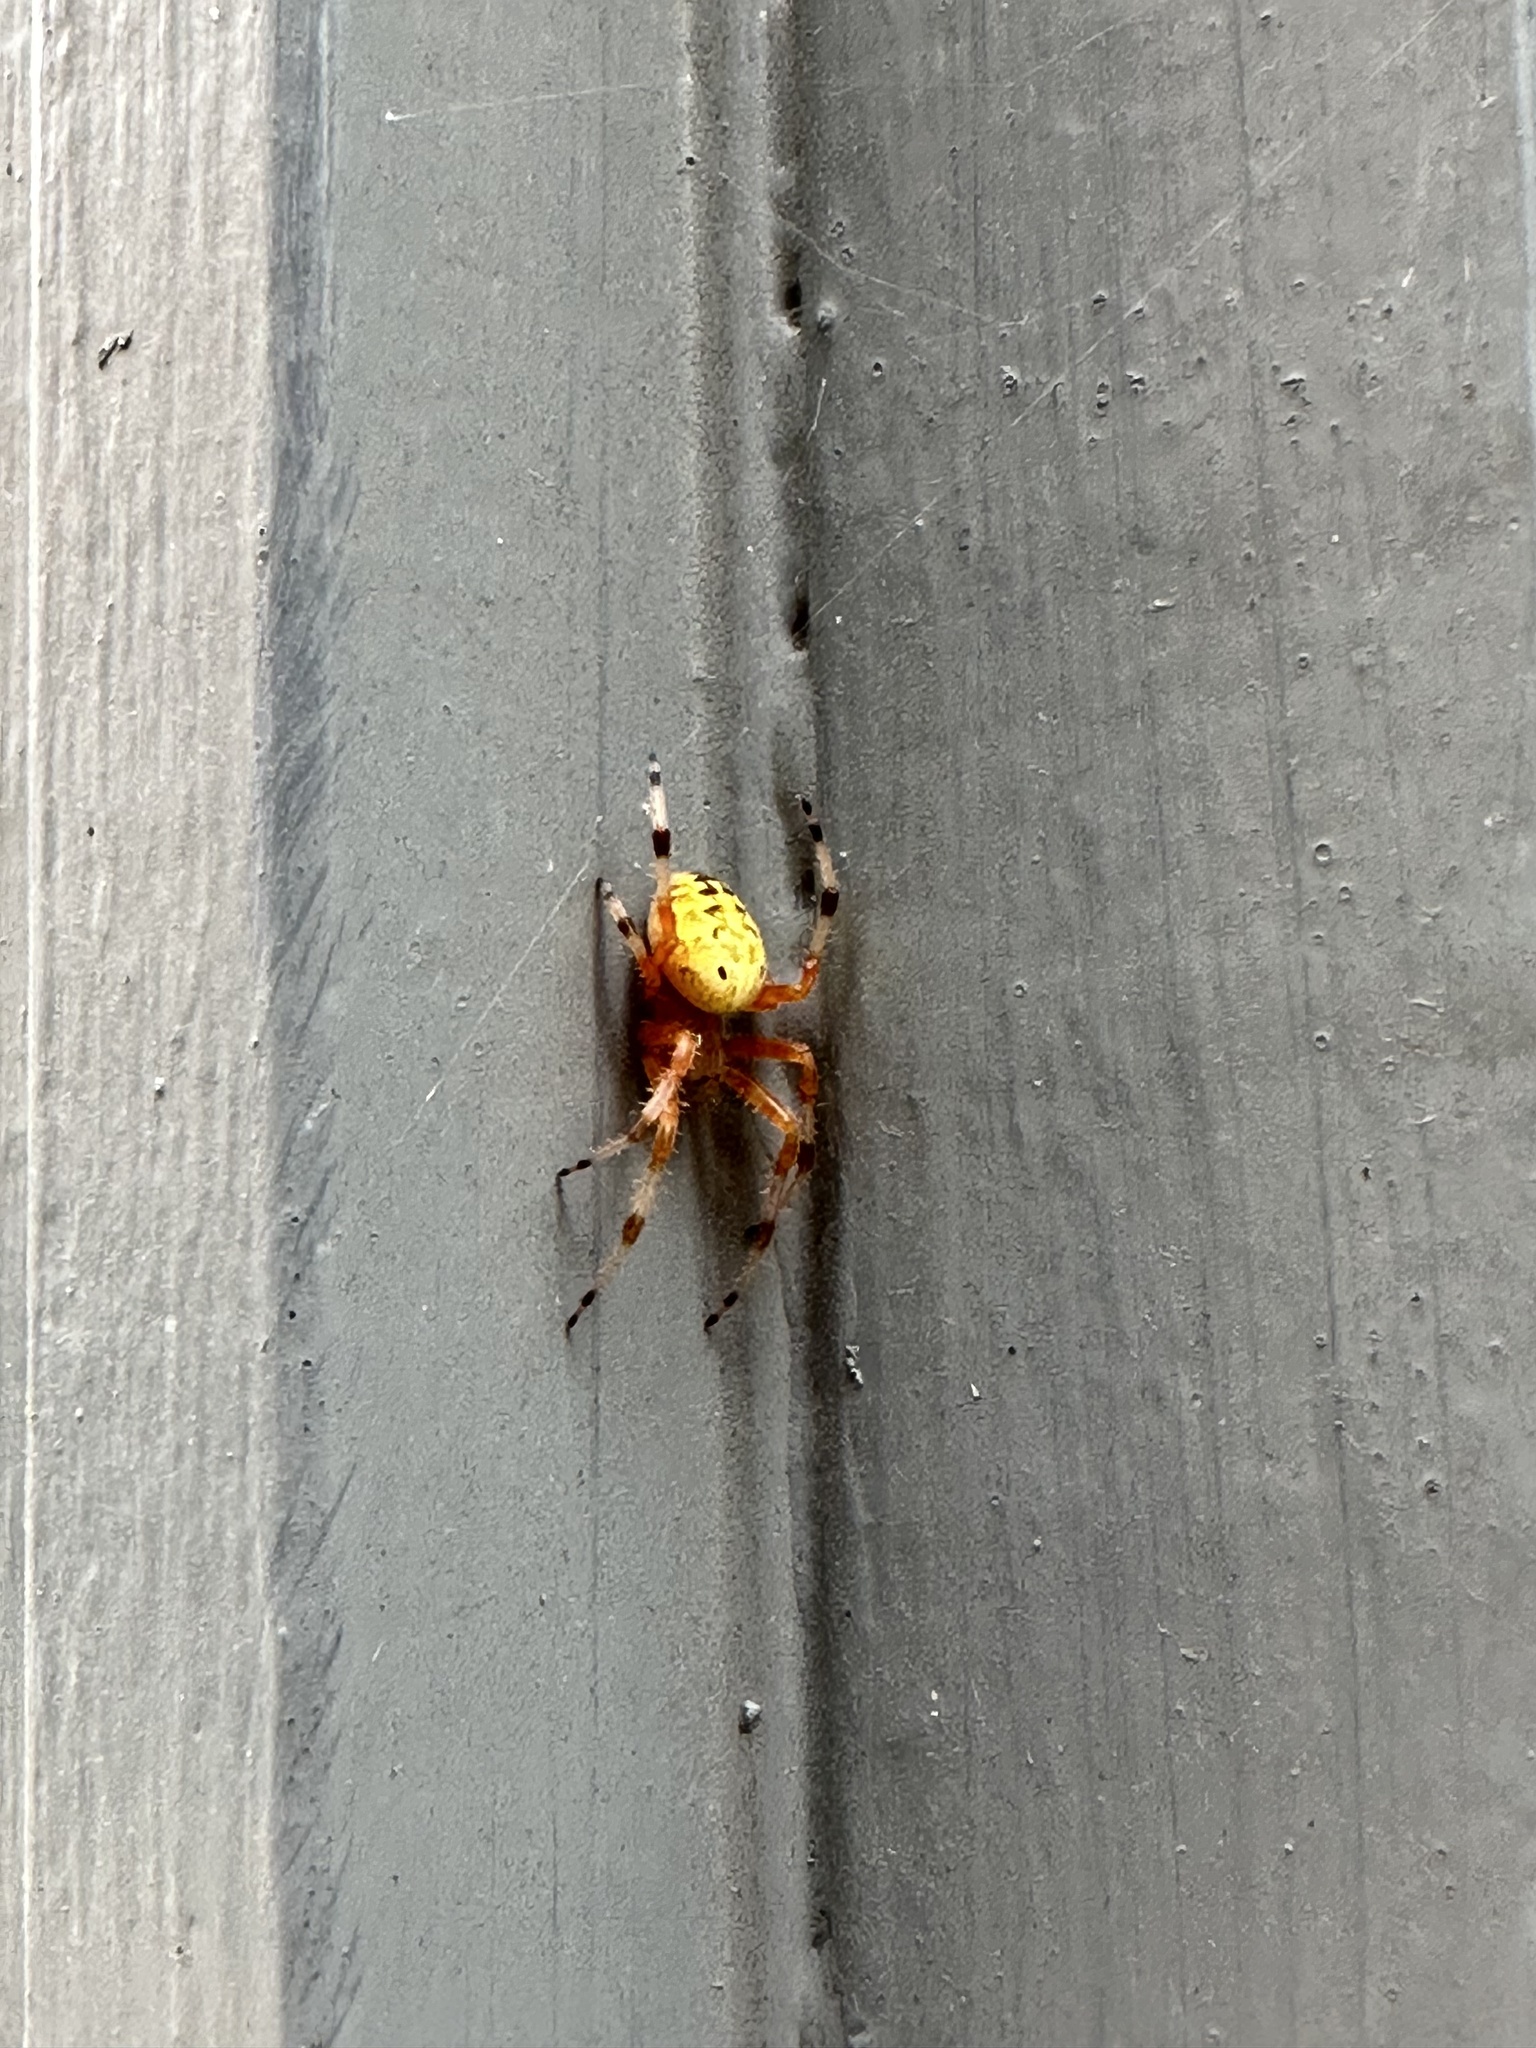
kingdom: Animalia
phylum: Arthropoda
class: Arachnida
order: Araneae
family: Araneidae
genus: Araneus
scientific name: Araneus marmoreus
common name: Marbled orbweaver
